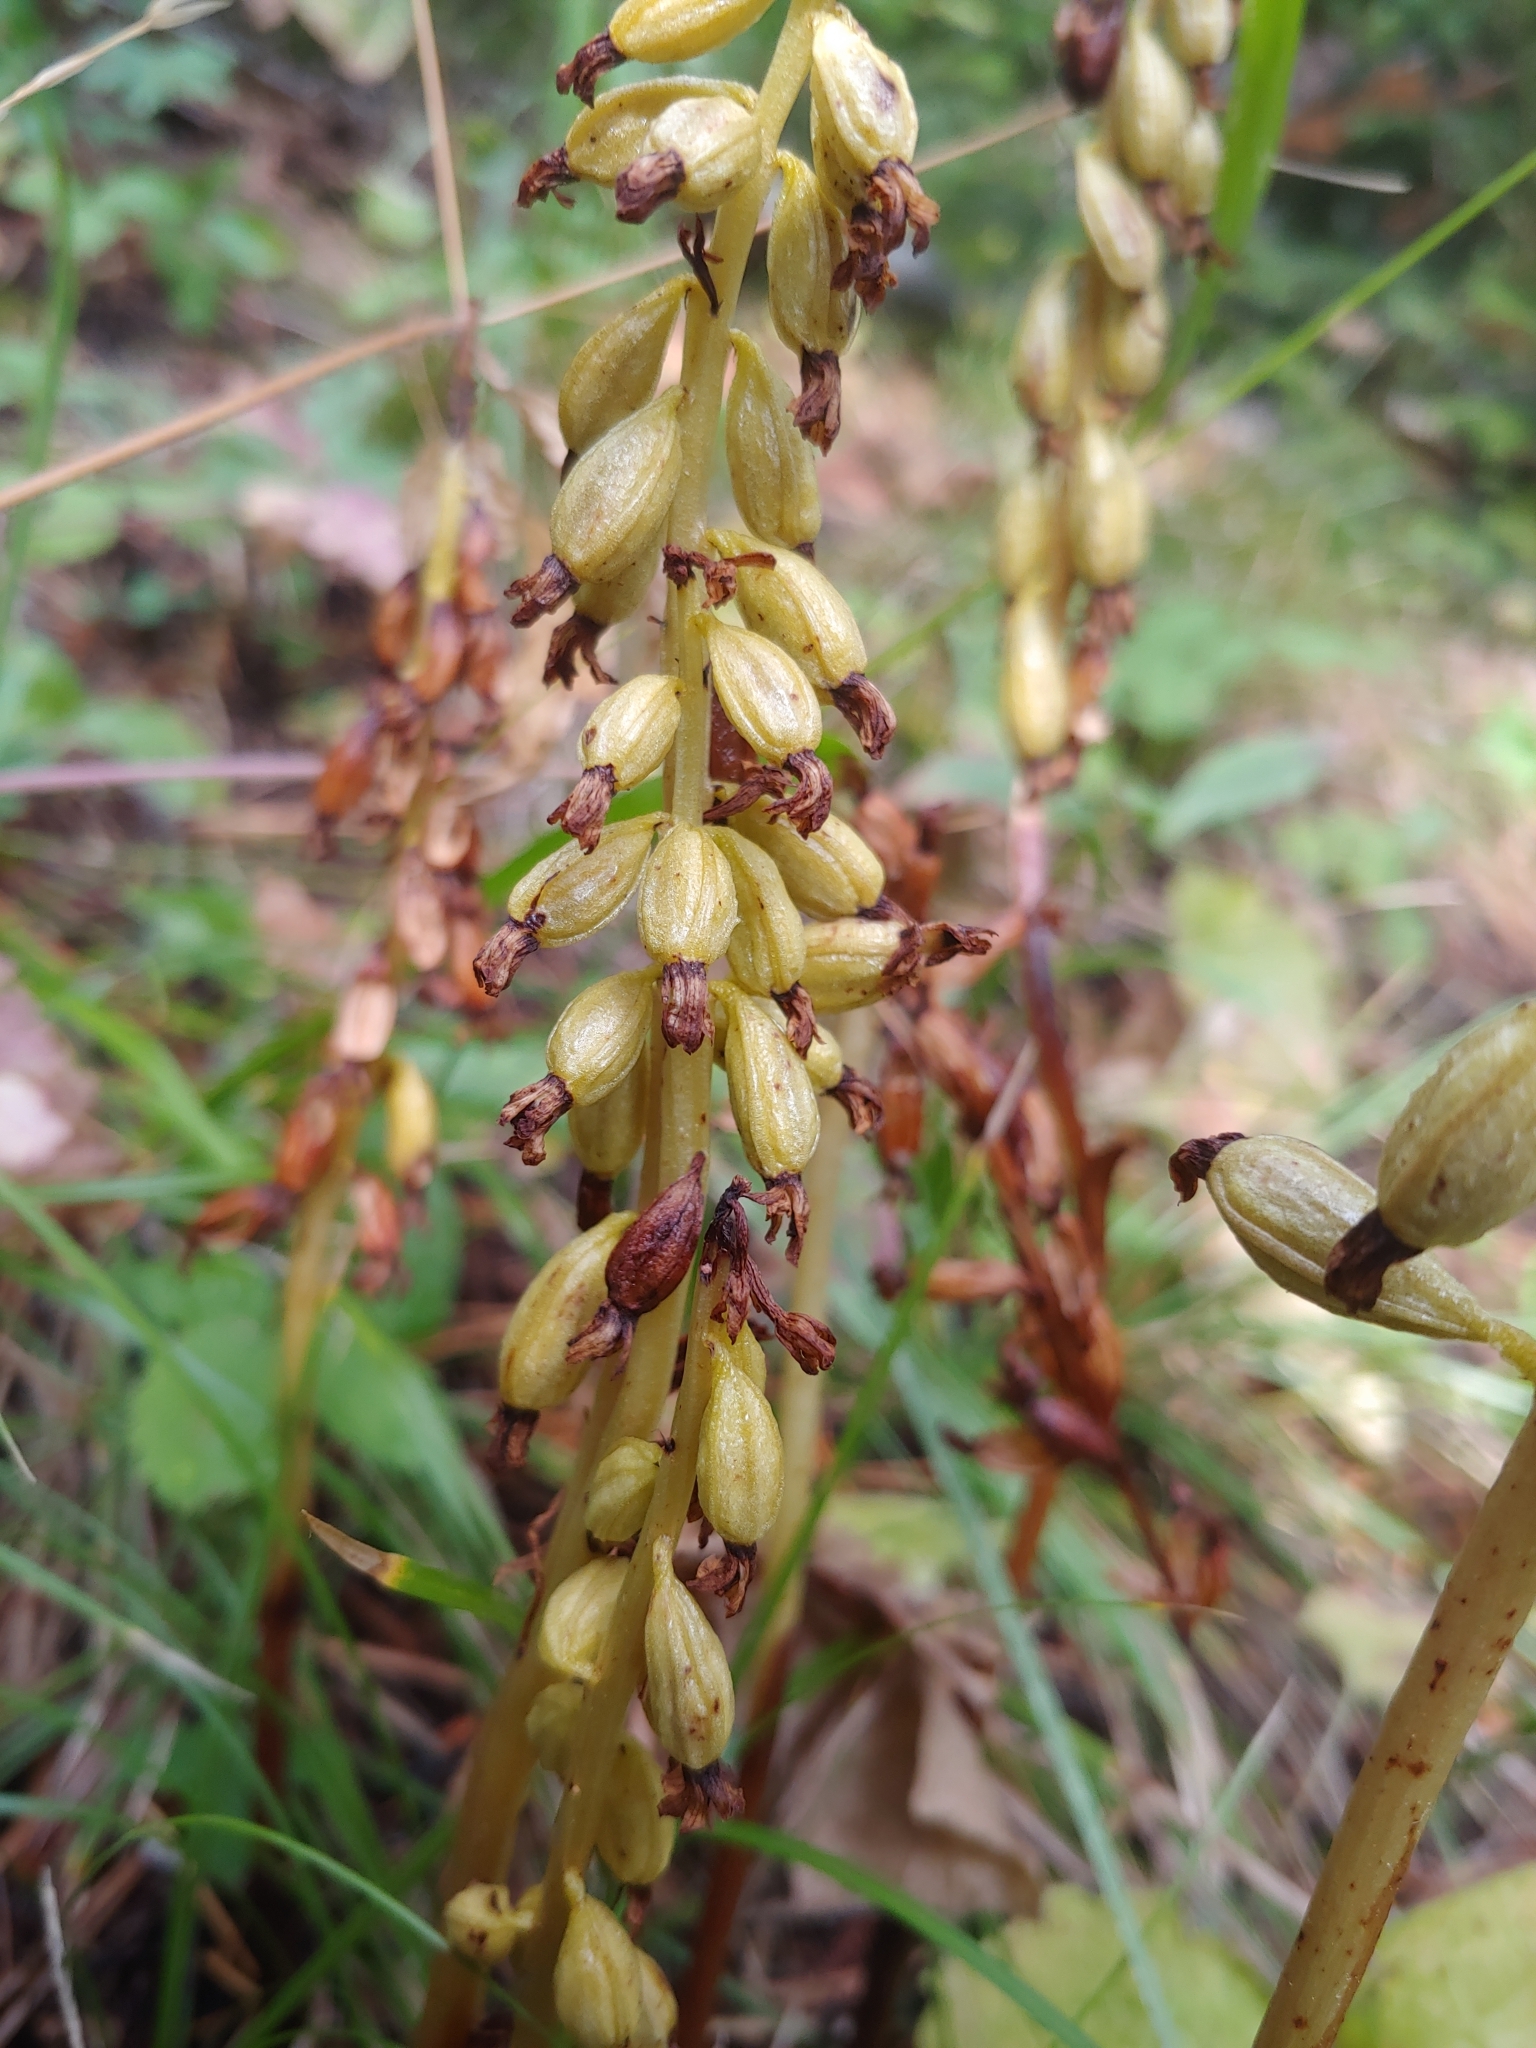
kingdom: Plantae
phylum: Tracheophyta
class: Liliopsida
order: Asparagales
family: Orchidaceae
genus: Corallorhiza
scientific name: Corallorhiza maculata
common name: Spotted coralroot
